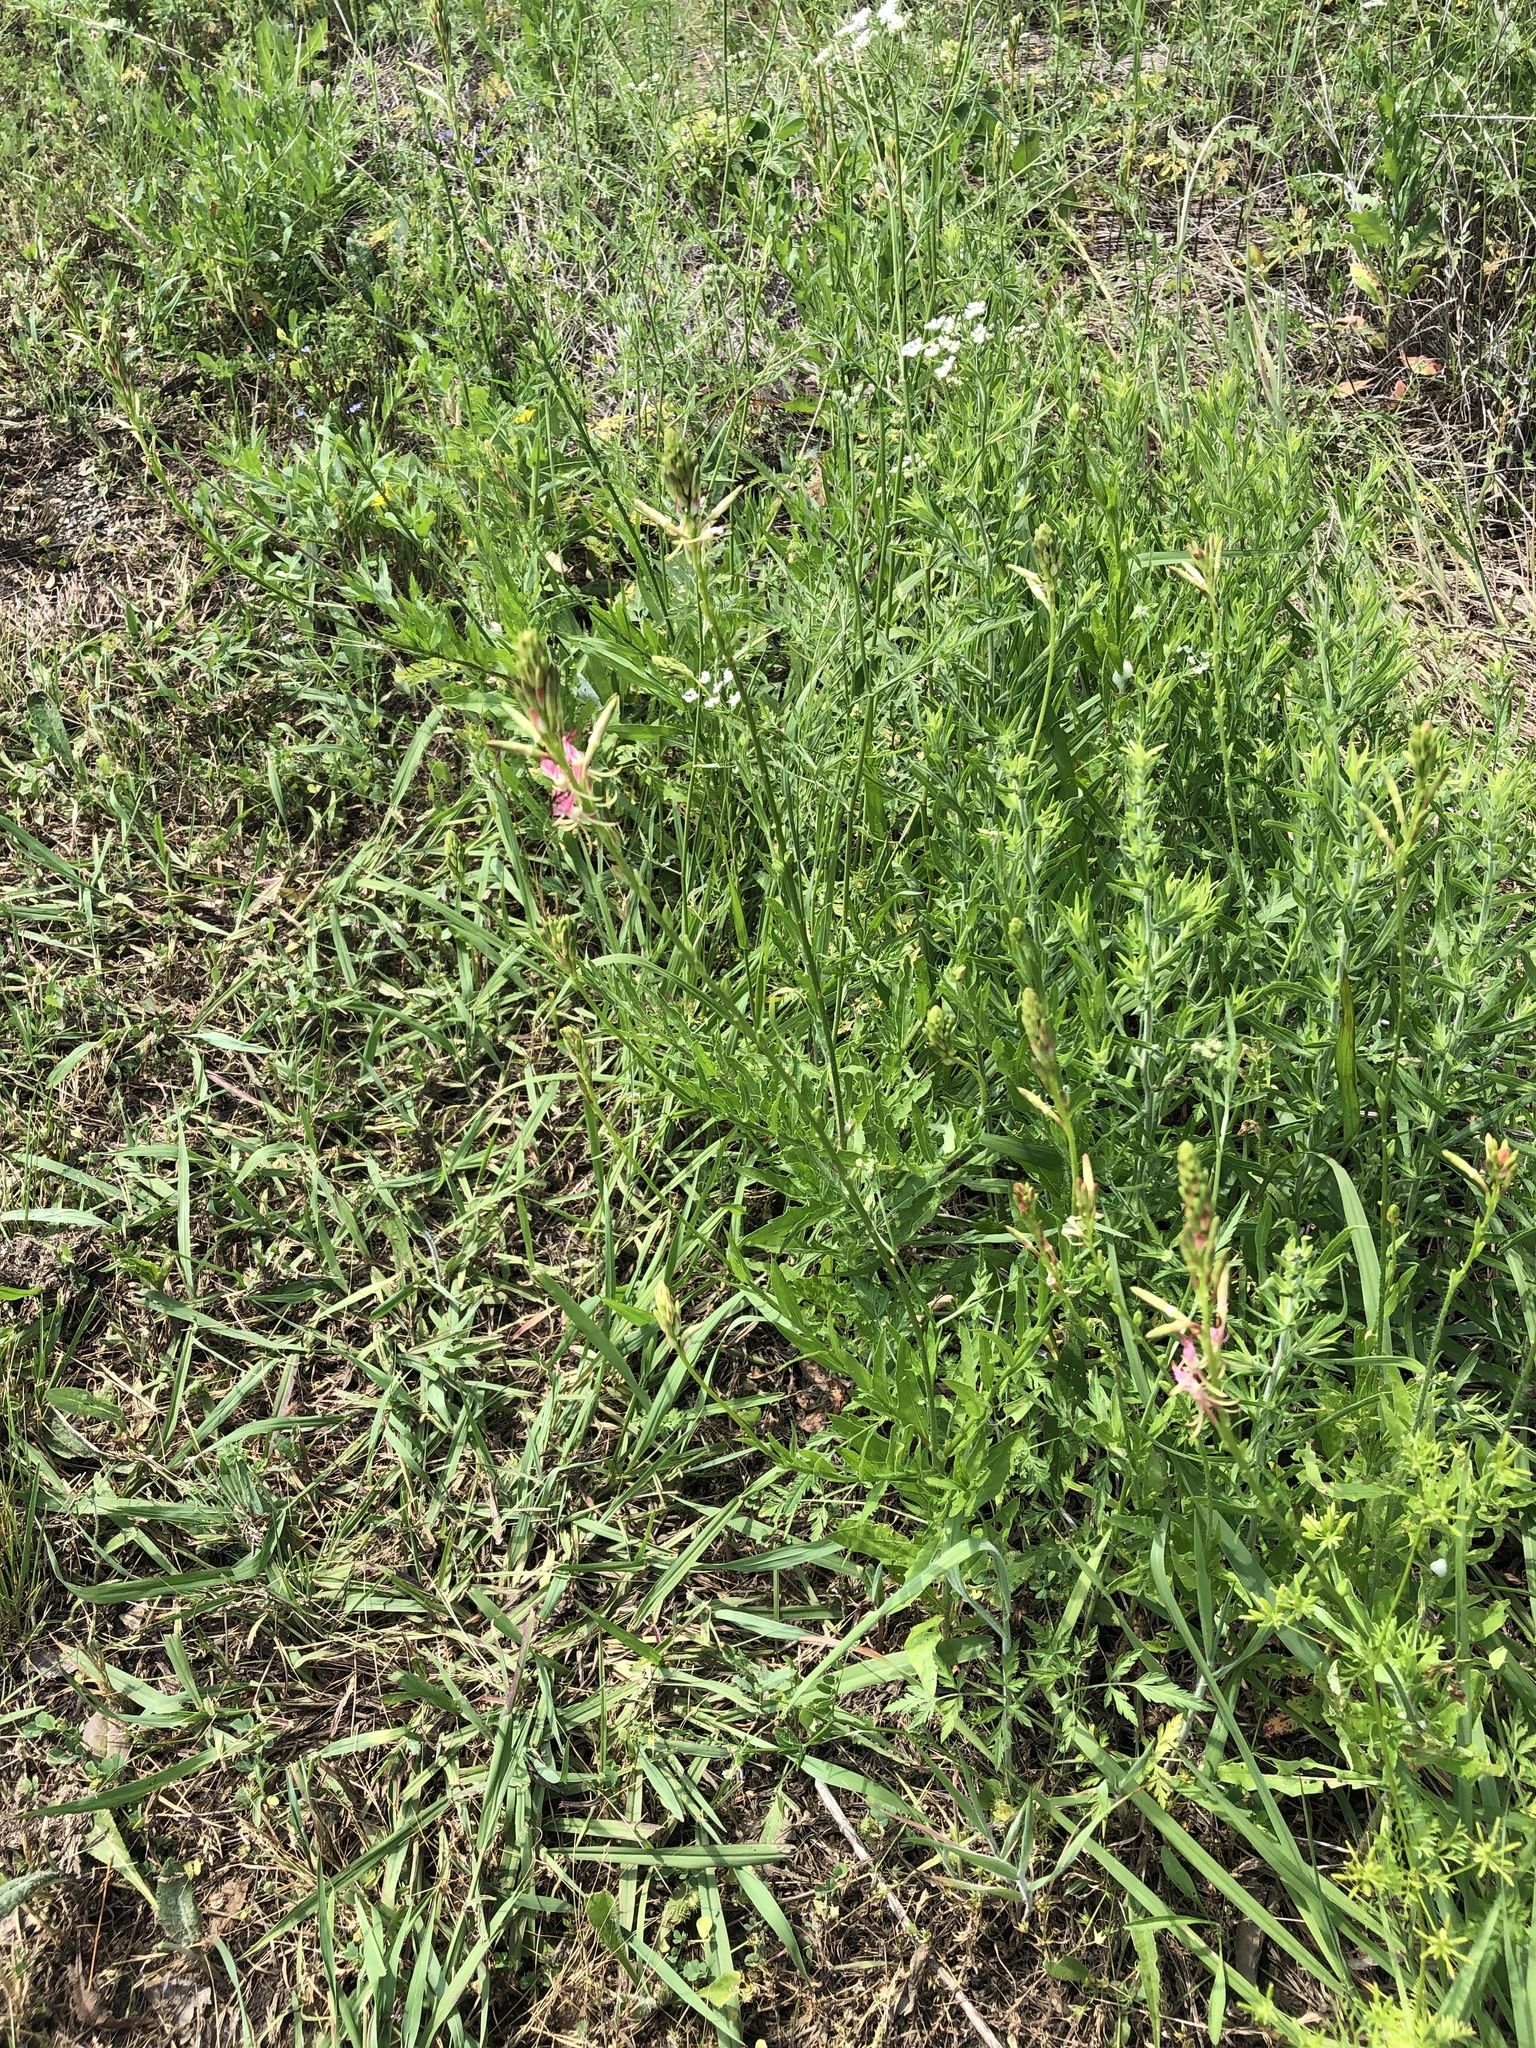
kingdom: Plantae
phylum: Tracheophyta
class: Magnoliopsida
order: Myrtales
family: Onagraceae
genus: Oenothera
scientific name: Oenothera suffulta
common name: Kisses
